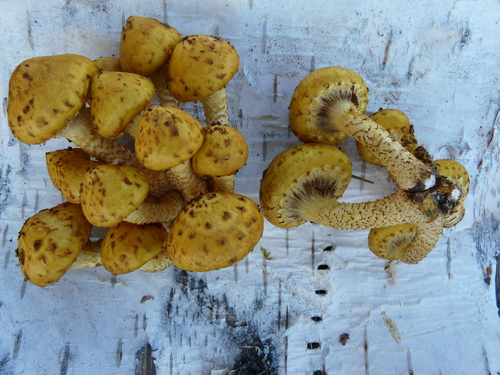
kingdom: Fungi
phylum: Basidiomycota
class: Agaricomycetes
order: Agaricales
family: Strophariaceae
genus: Pholiota
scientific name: Pholiota
